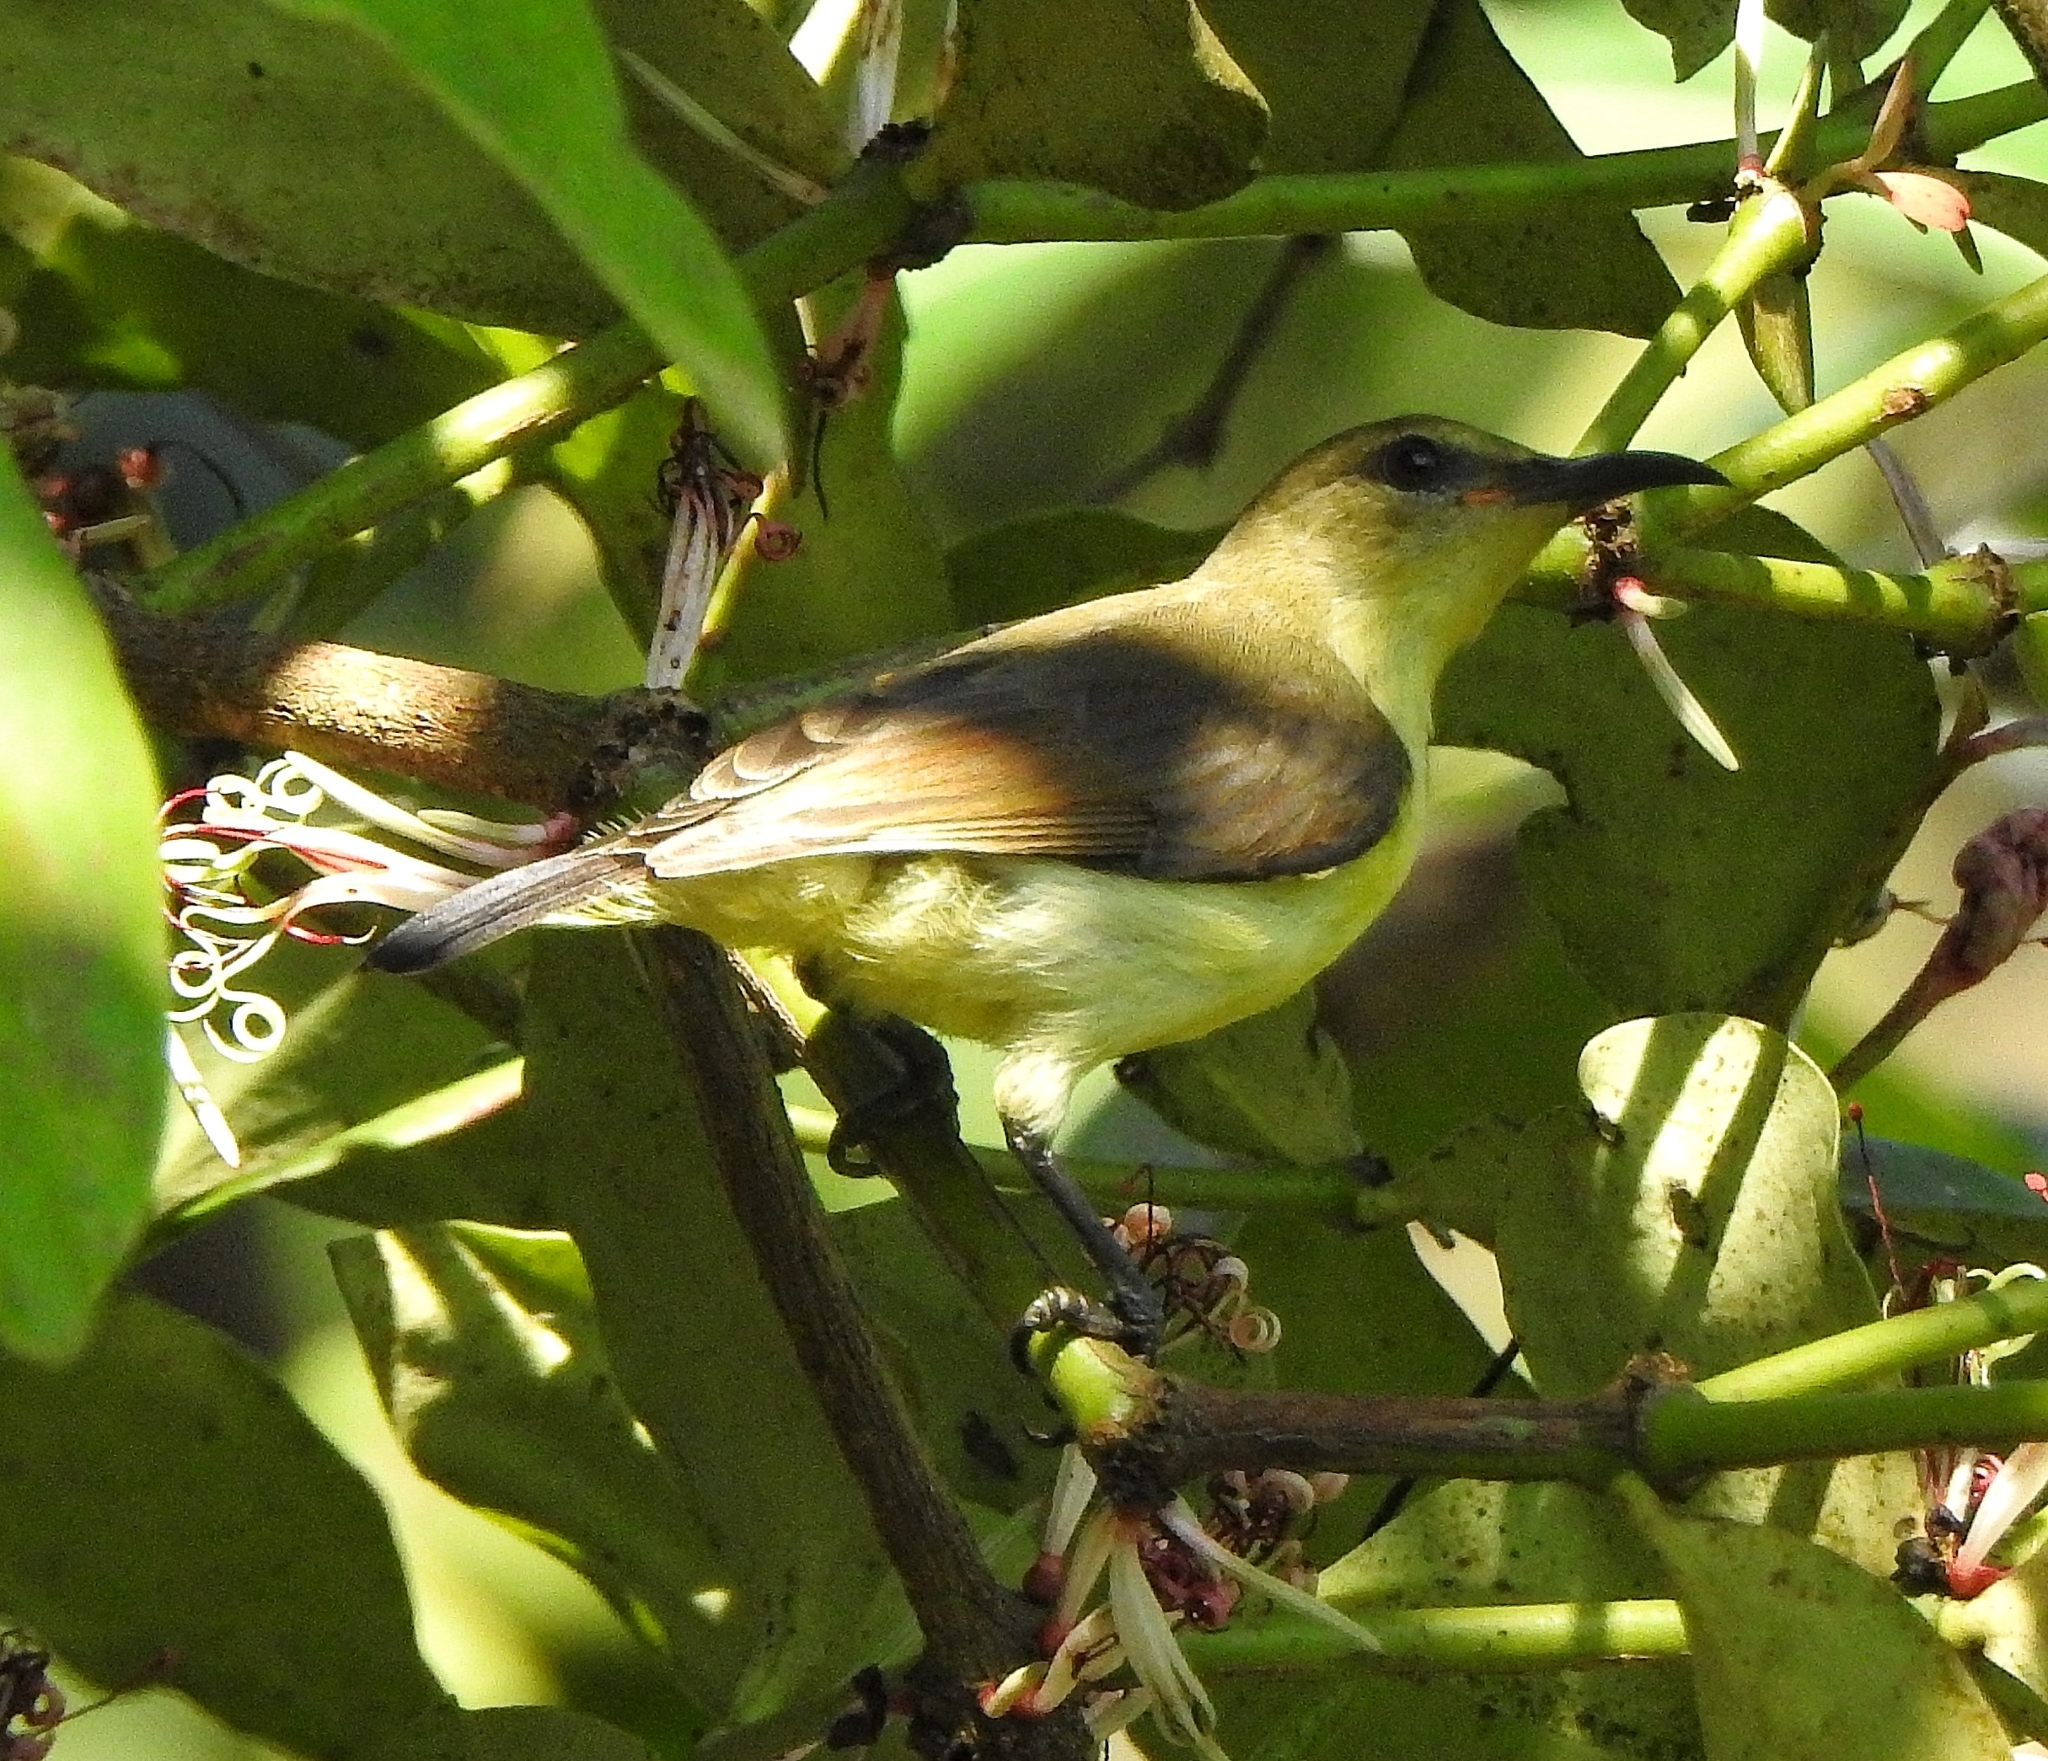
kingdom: Animalia
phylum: Chordata
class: Aves
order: Passeriformes
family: Nectariniidae
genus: Leptocoma
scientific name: Leptocoma zeylonica
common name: Purple-rumped sunbird
